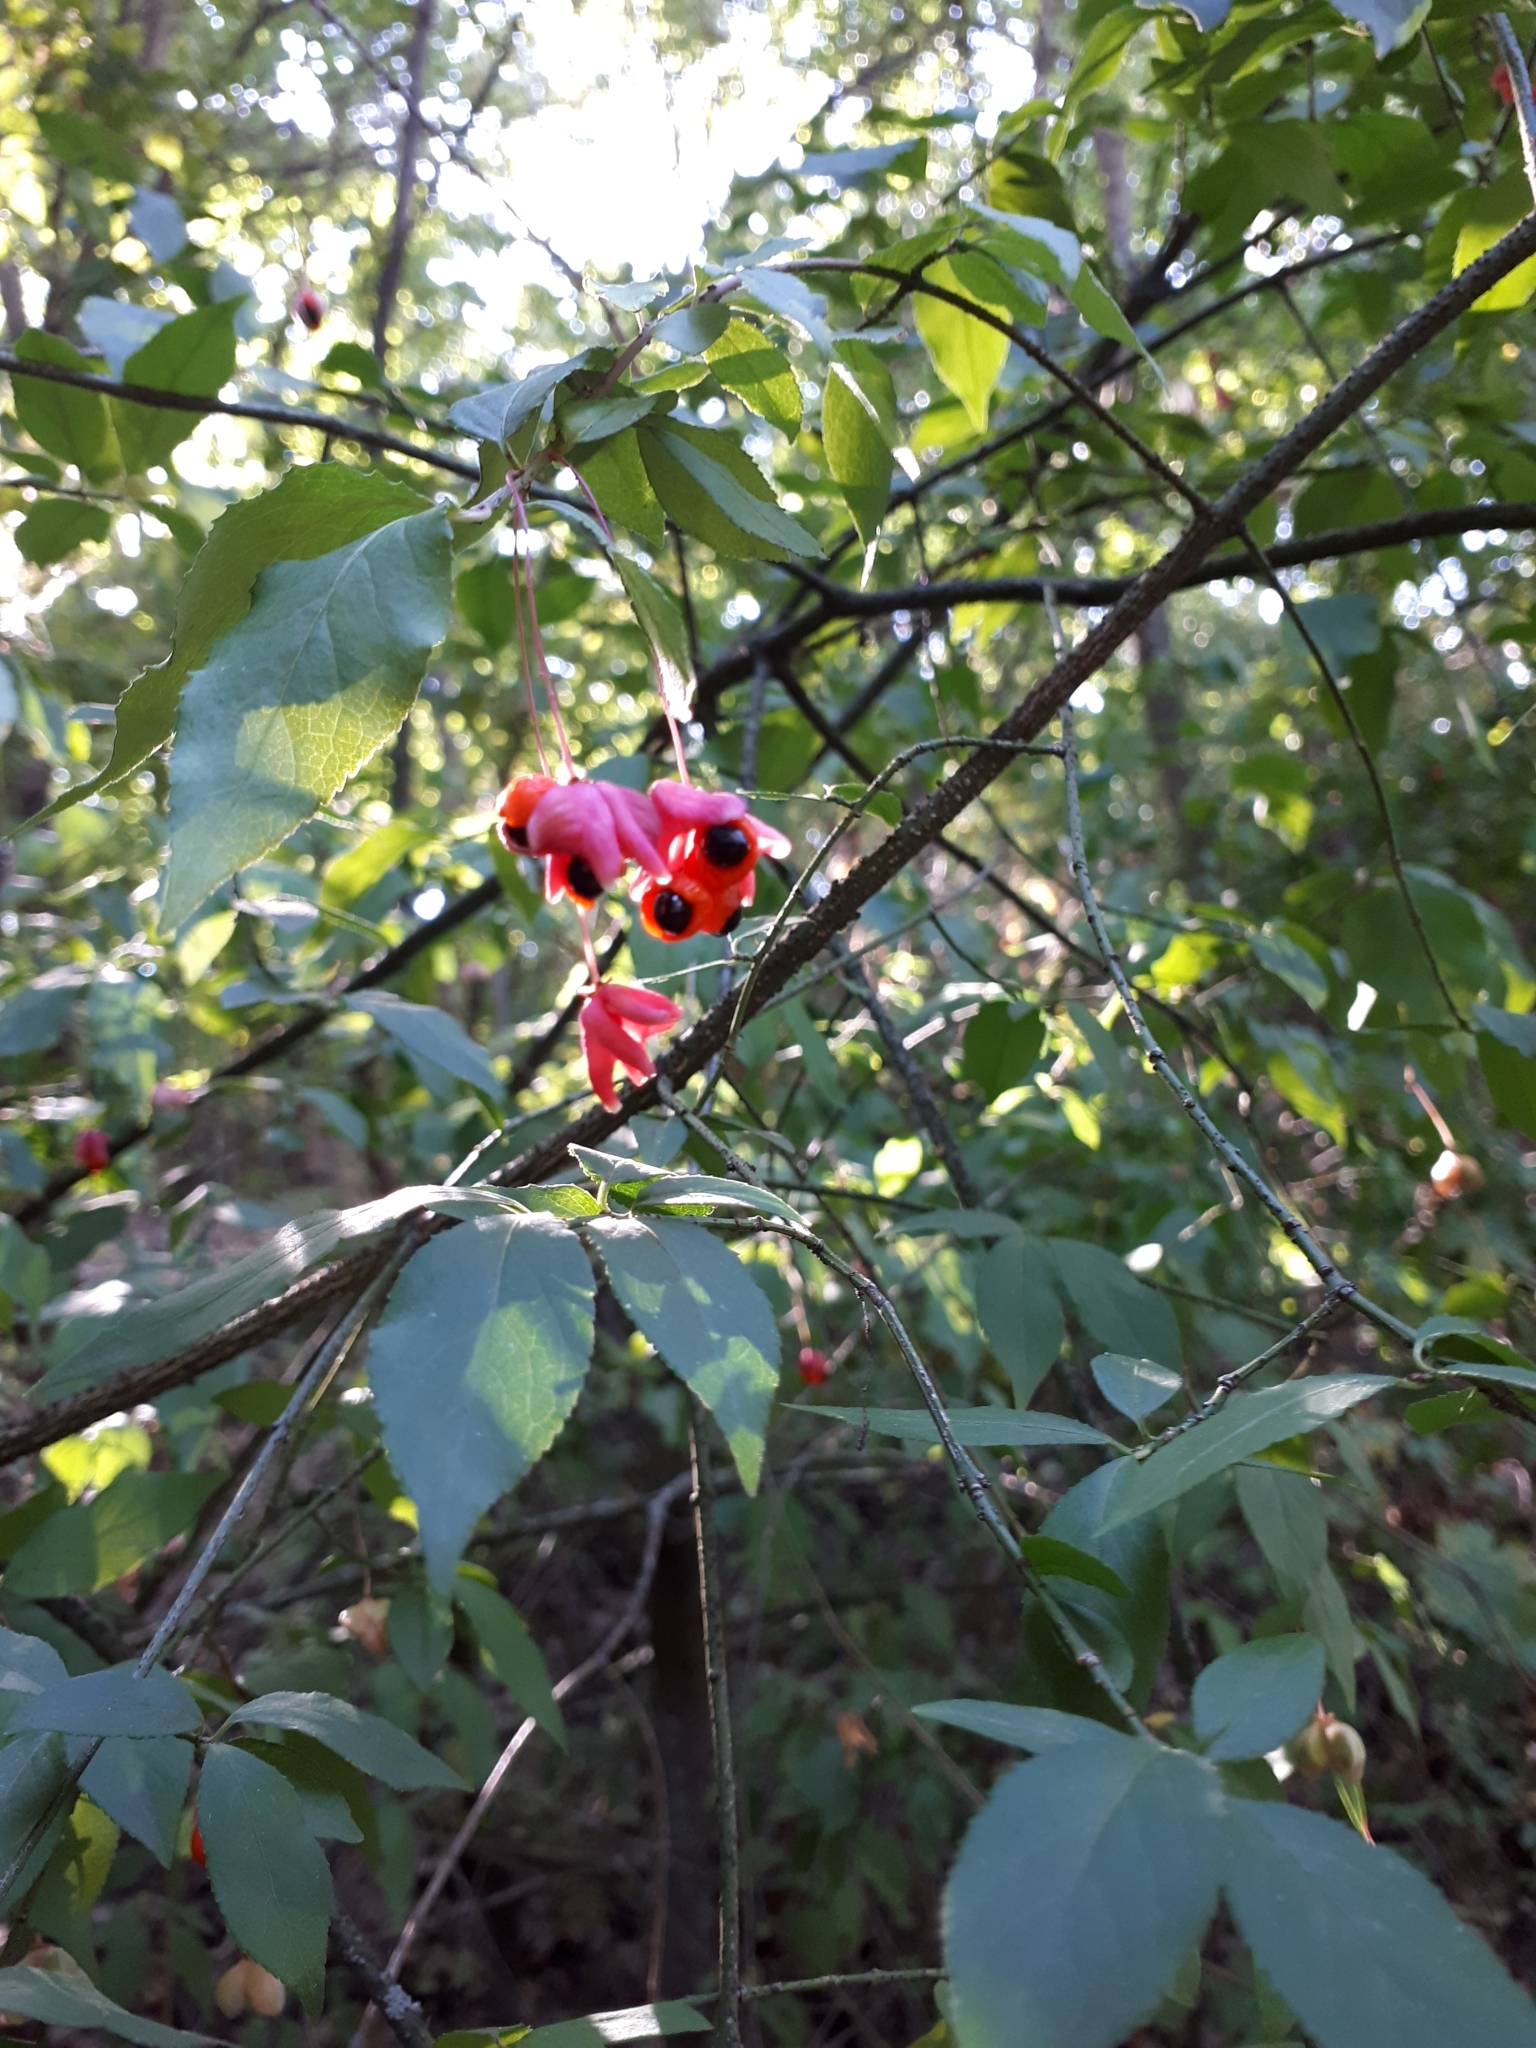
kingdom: Plantae
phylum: Tracheophyta
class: Magnoliopsida
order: Celastrales
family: Celastraceae
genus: Euonymus
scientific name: Euonymus verrucosus
